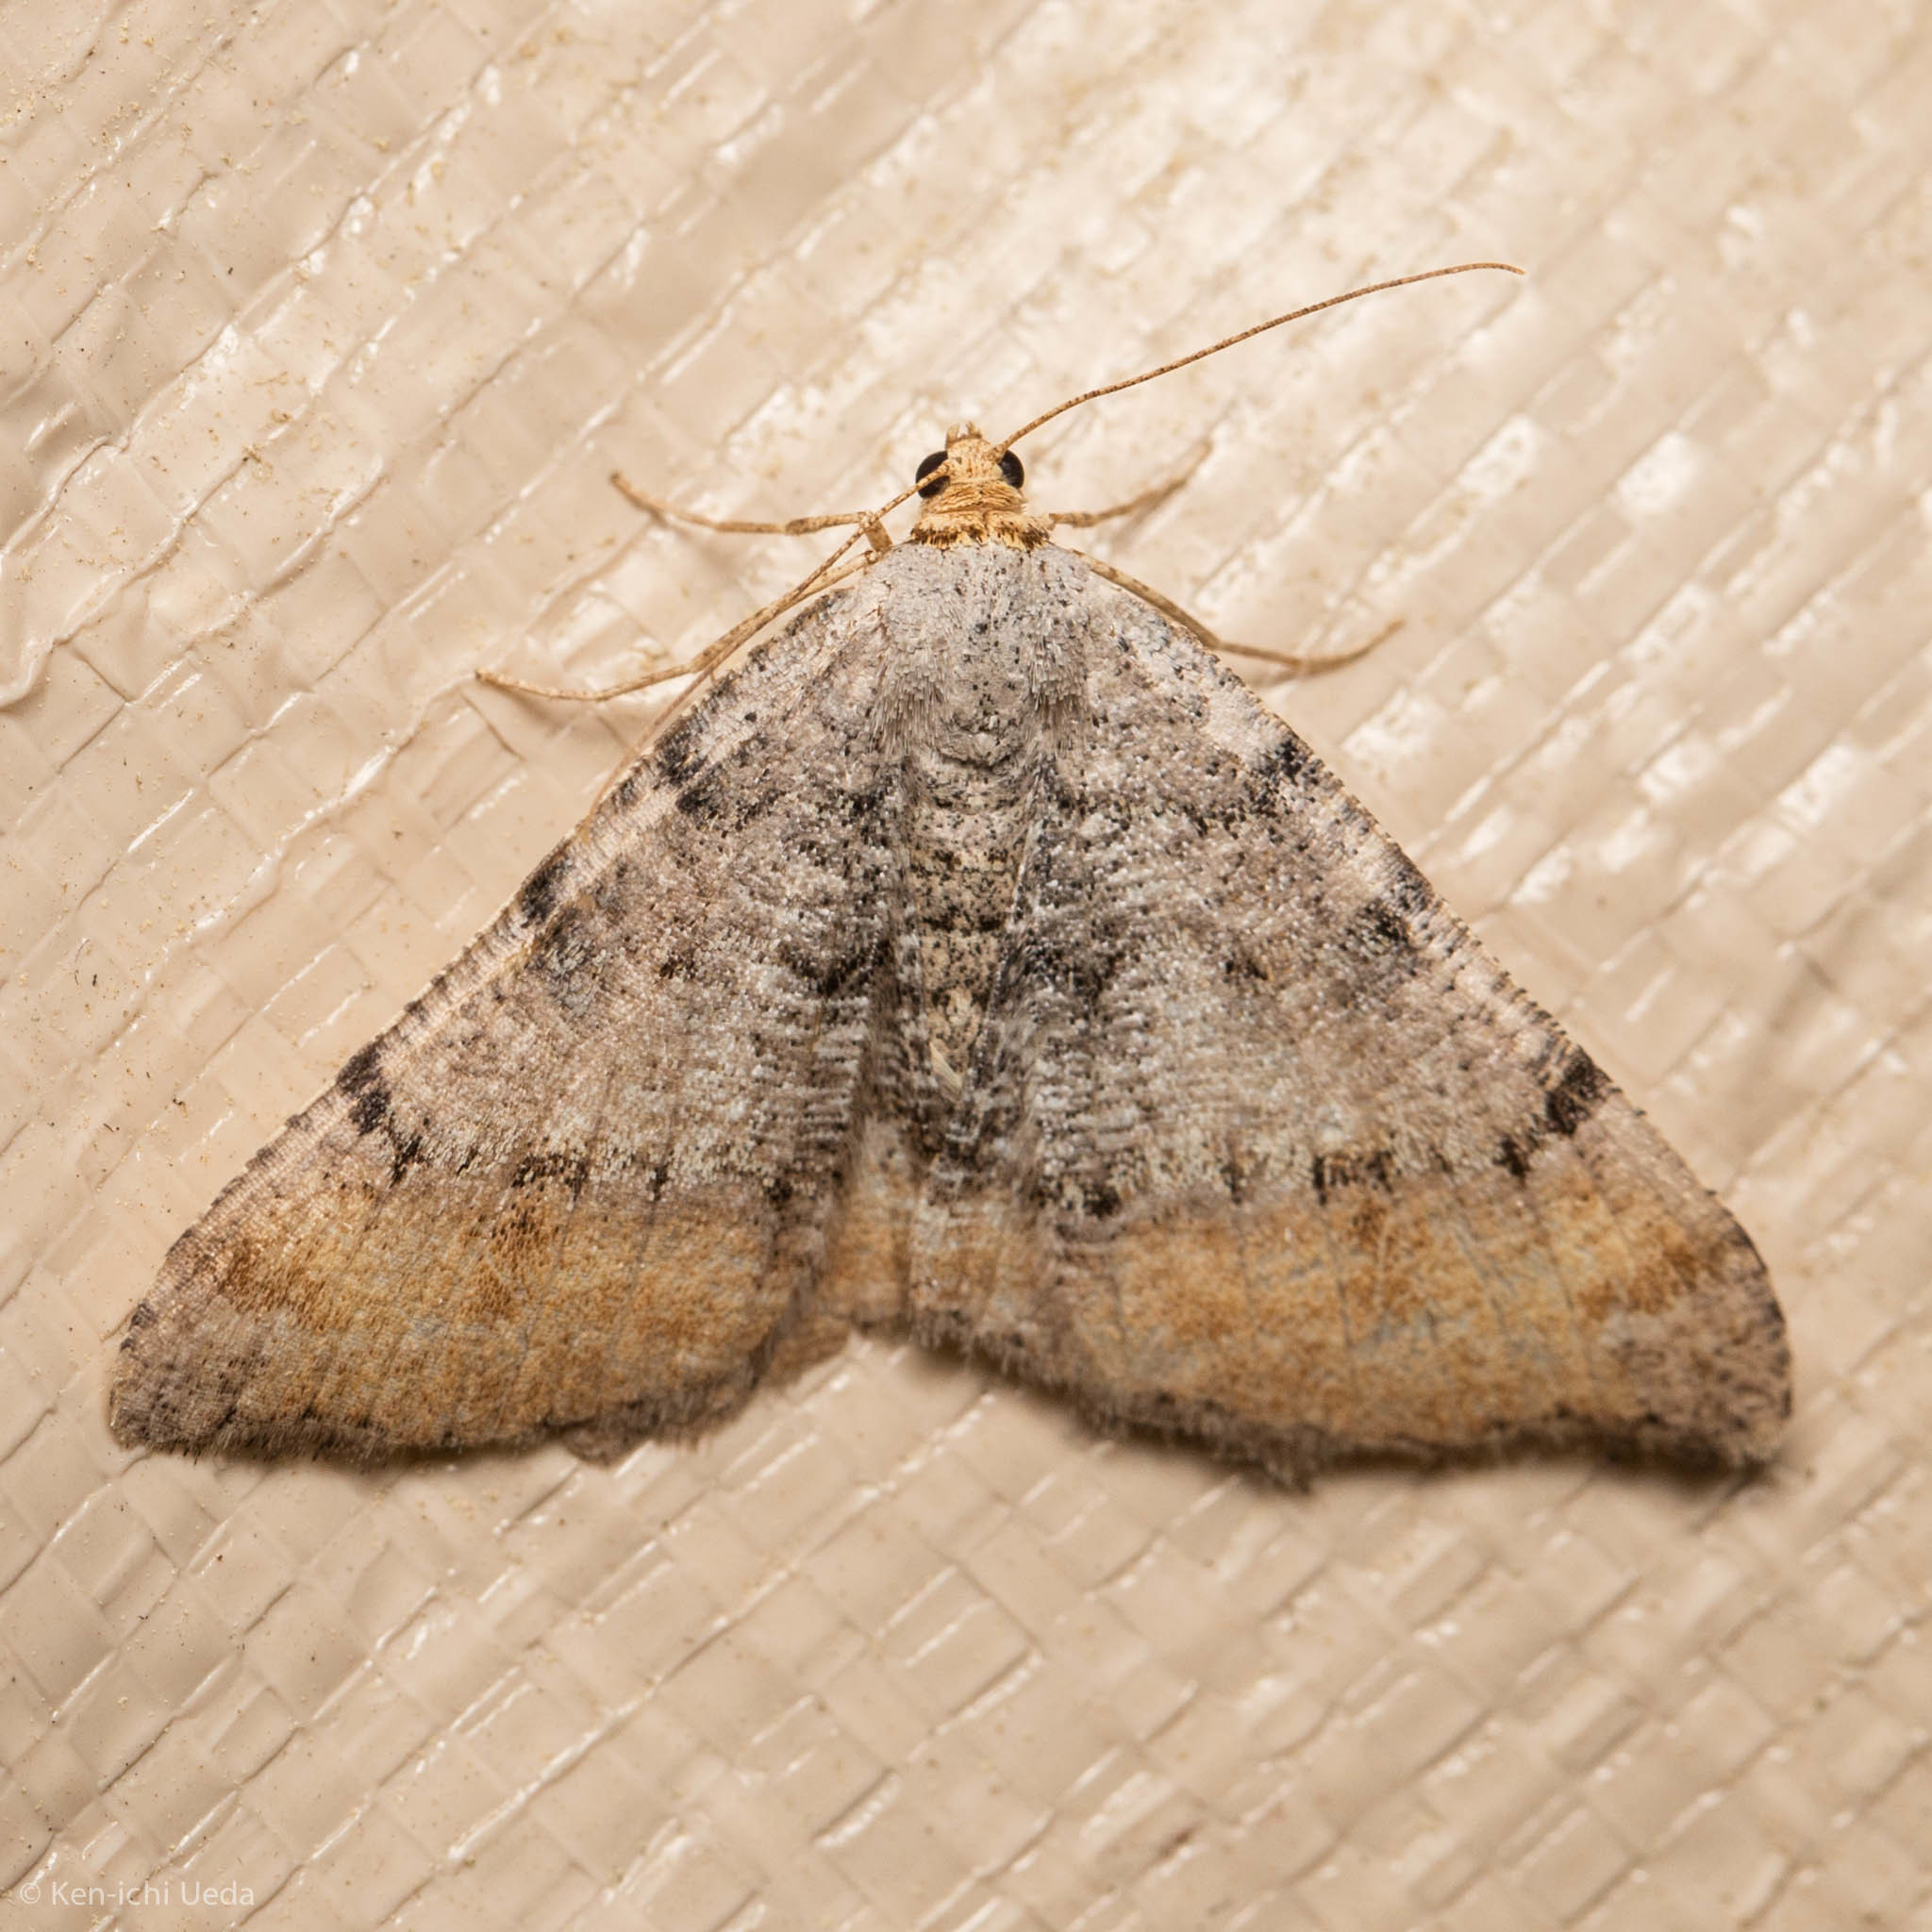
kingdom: Animalia
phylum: Arthropoda
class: Insecta
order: Lepidoptera
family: Geometridae
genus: Macaria
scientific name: Macaria adonis
